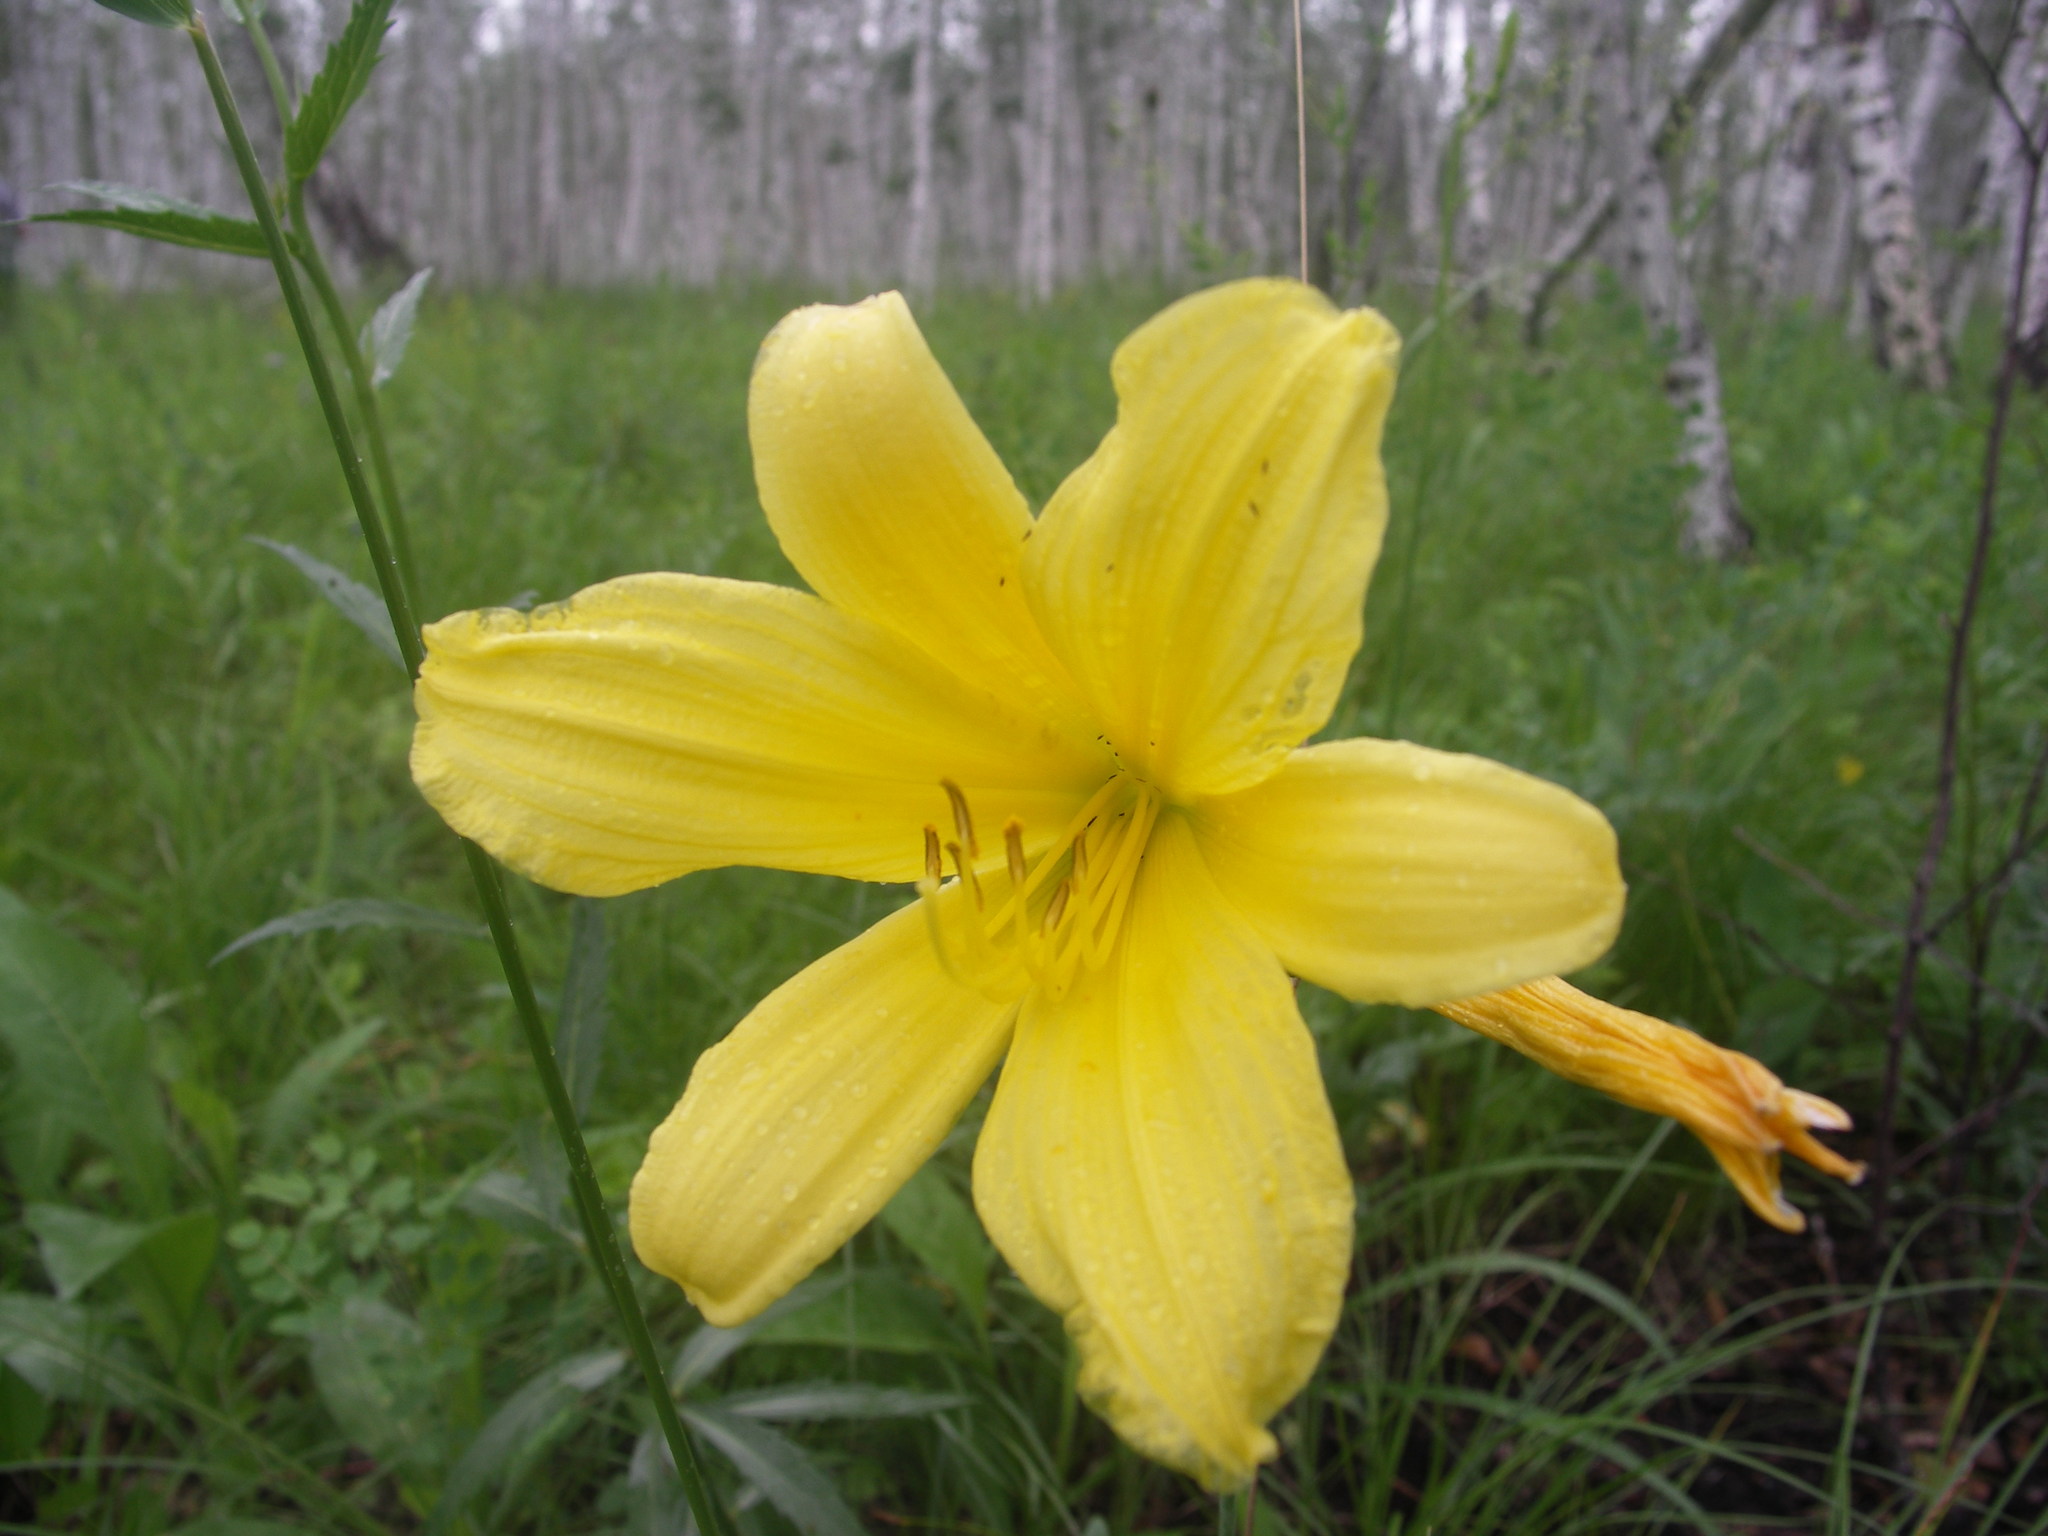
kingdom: Plantae
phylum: Tracheophyta
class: Liliopsida
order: Asparagales
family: Asphodelaceae
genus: Hemerocallis
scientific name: Hemerocallis minor
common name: Small daylily
